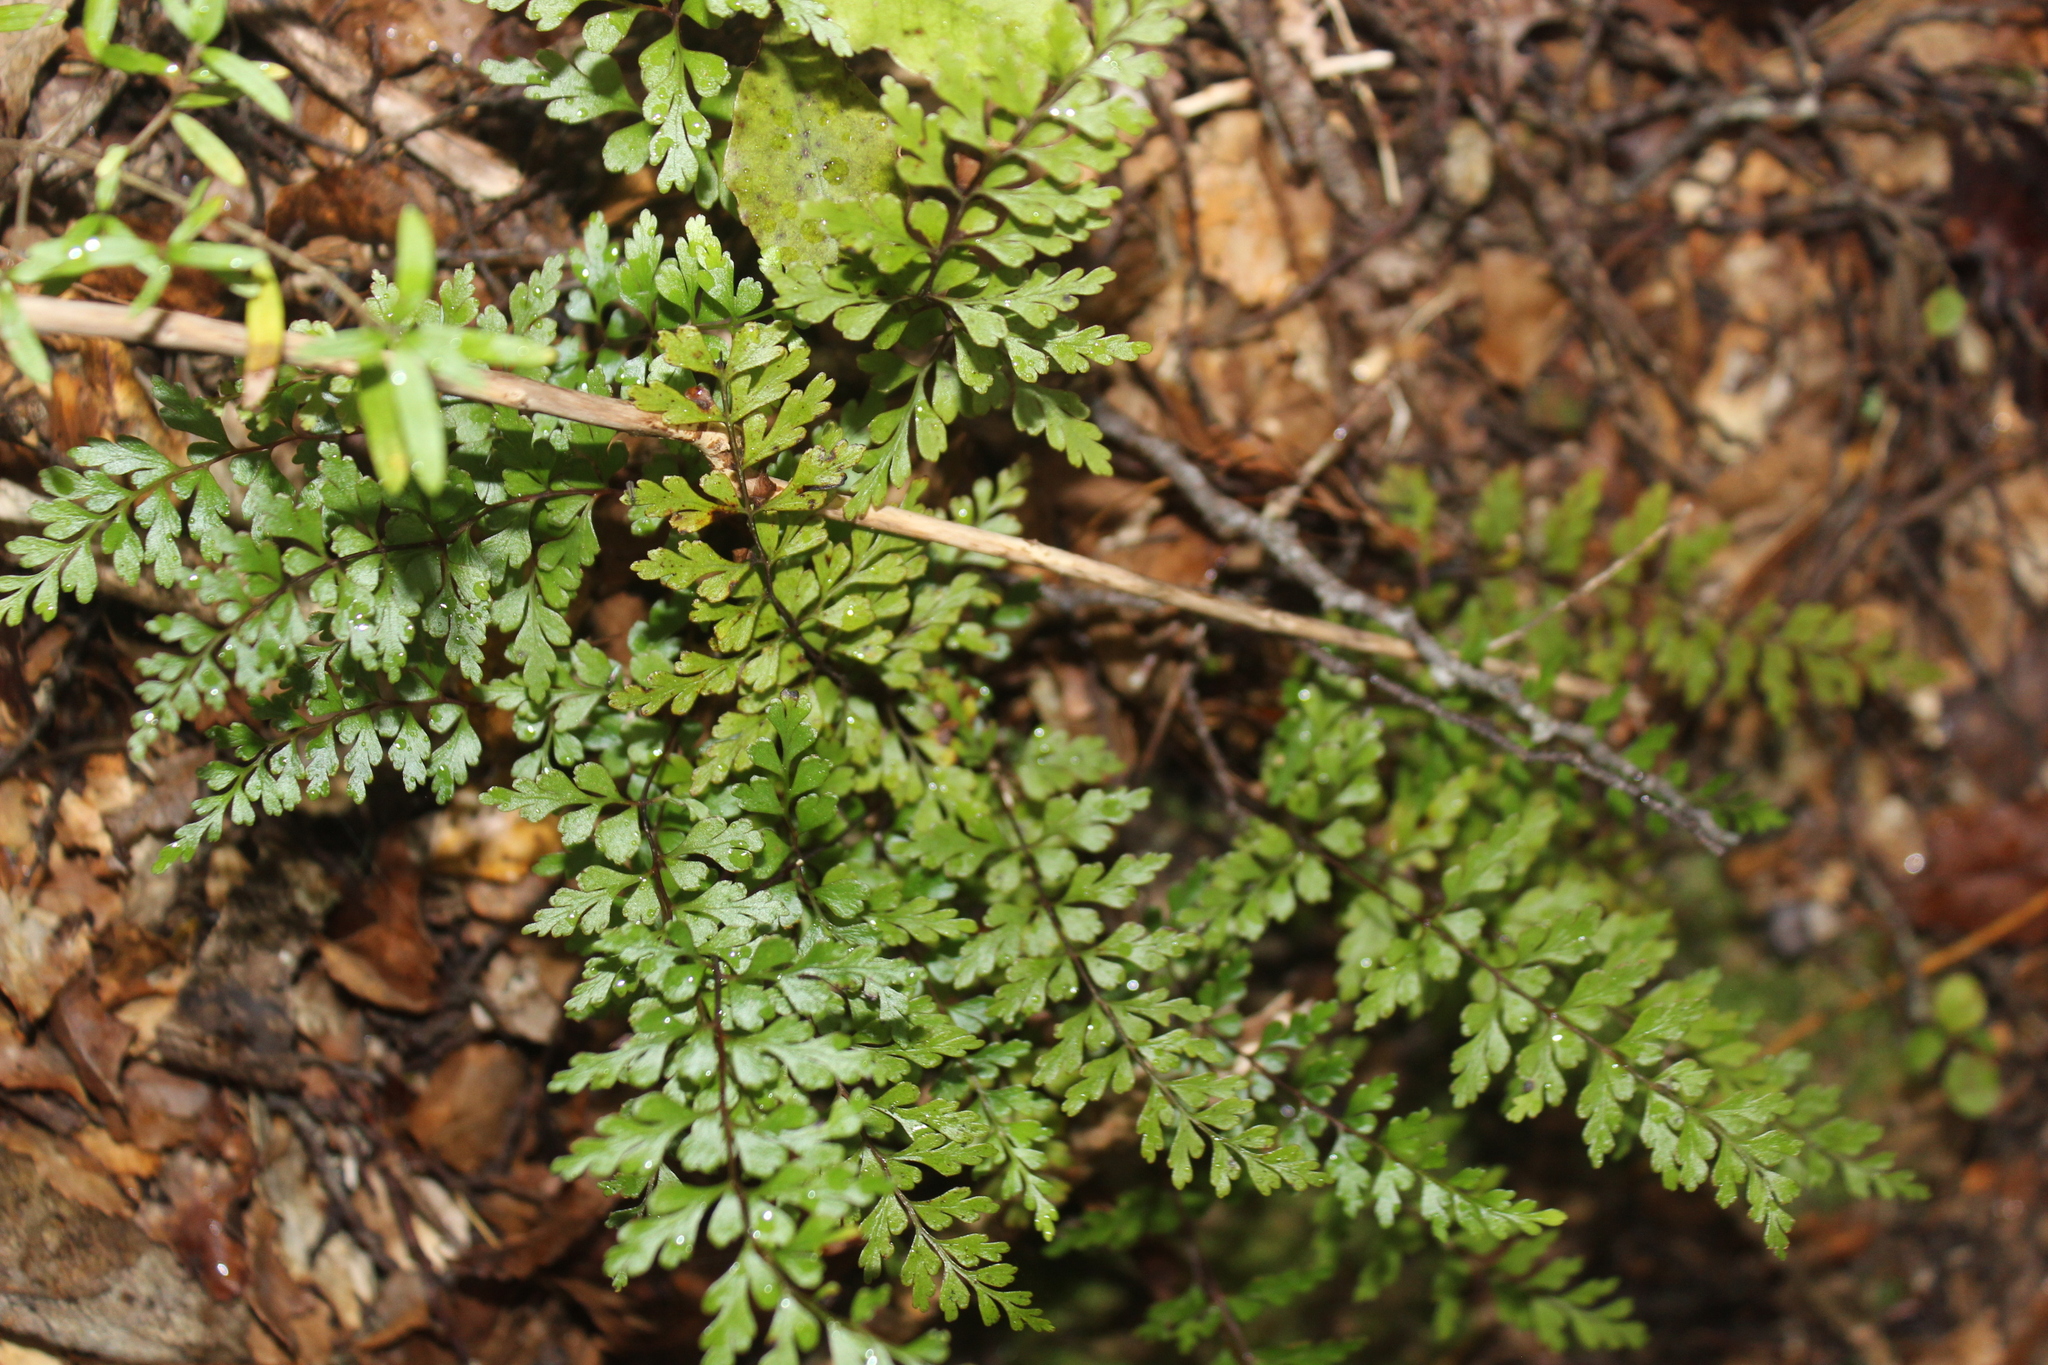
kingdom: Plantae
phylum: Tracheophyta
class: Polypodiopsida
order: Polypodiales
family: Lindsaeaceae
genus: Lindsaea
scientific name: Lindsaea trichomanoides
